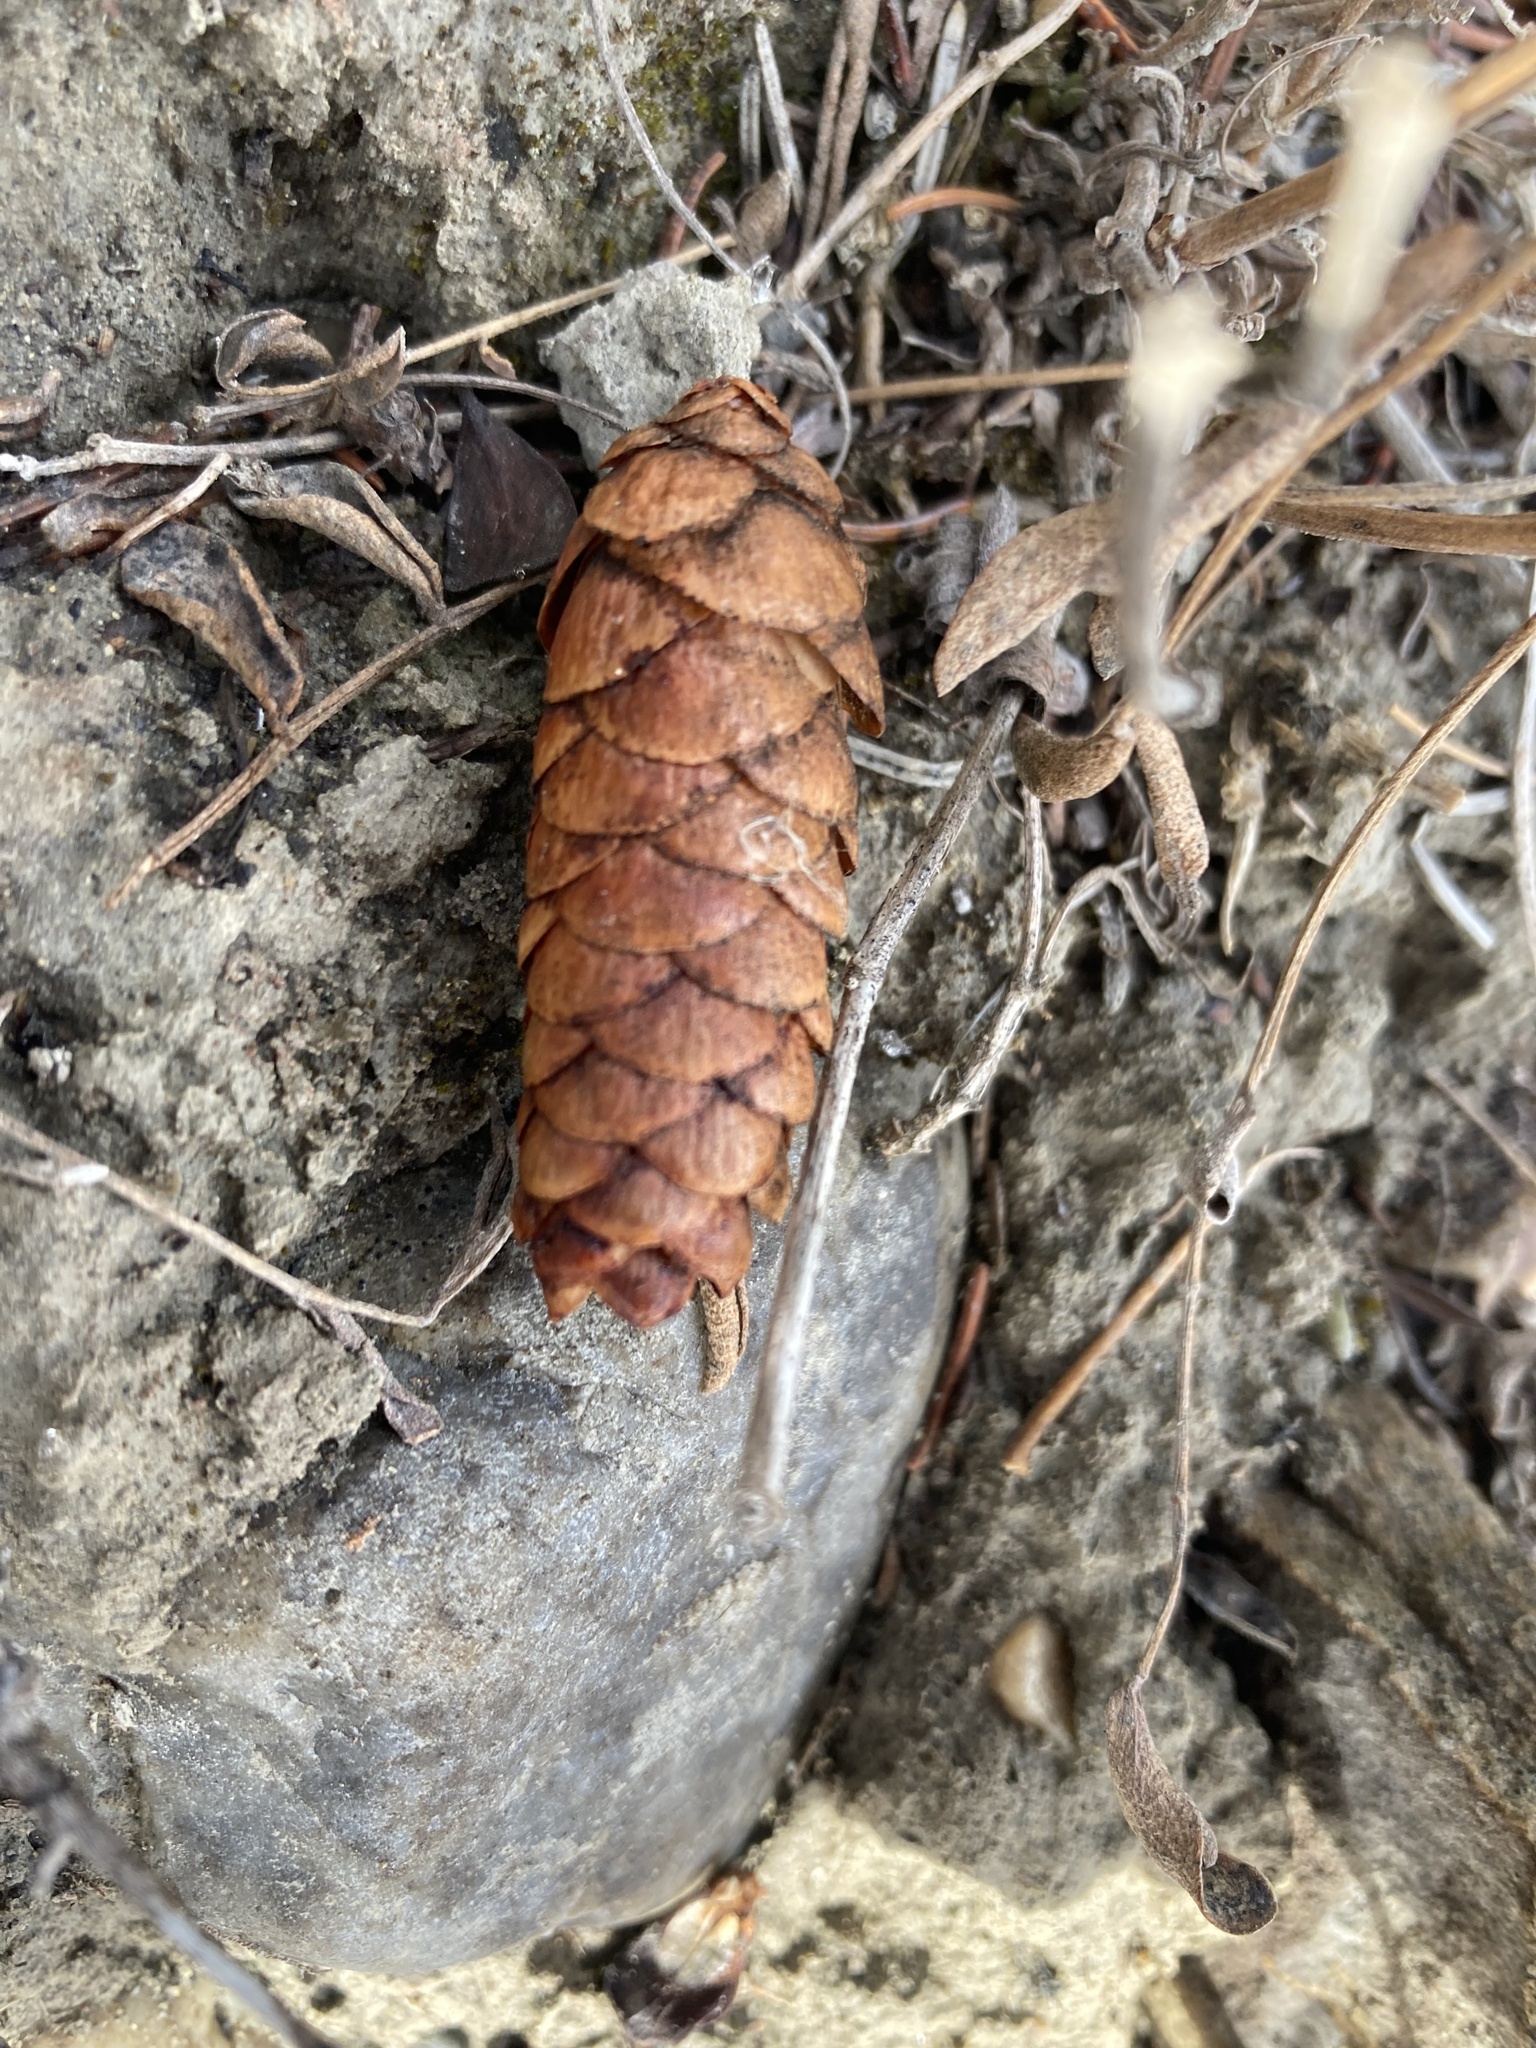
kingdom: Plantae
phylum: Tracheophyta
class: Pinopsida
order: Pinales
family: Pinaceae
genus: Picea
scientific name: Picea glauca
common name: White spruce
